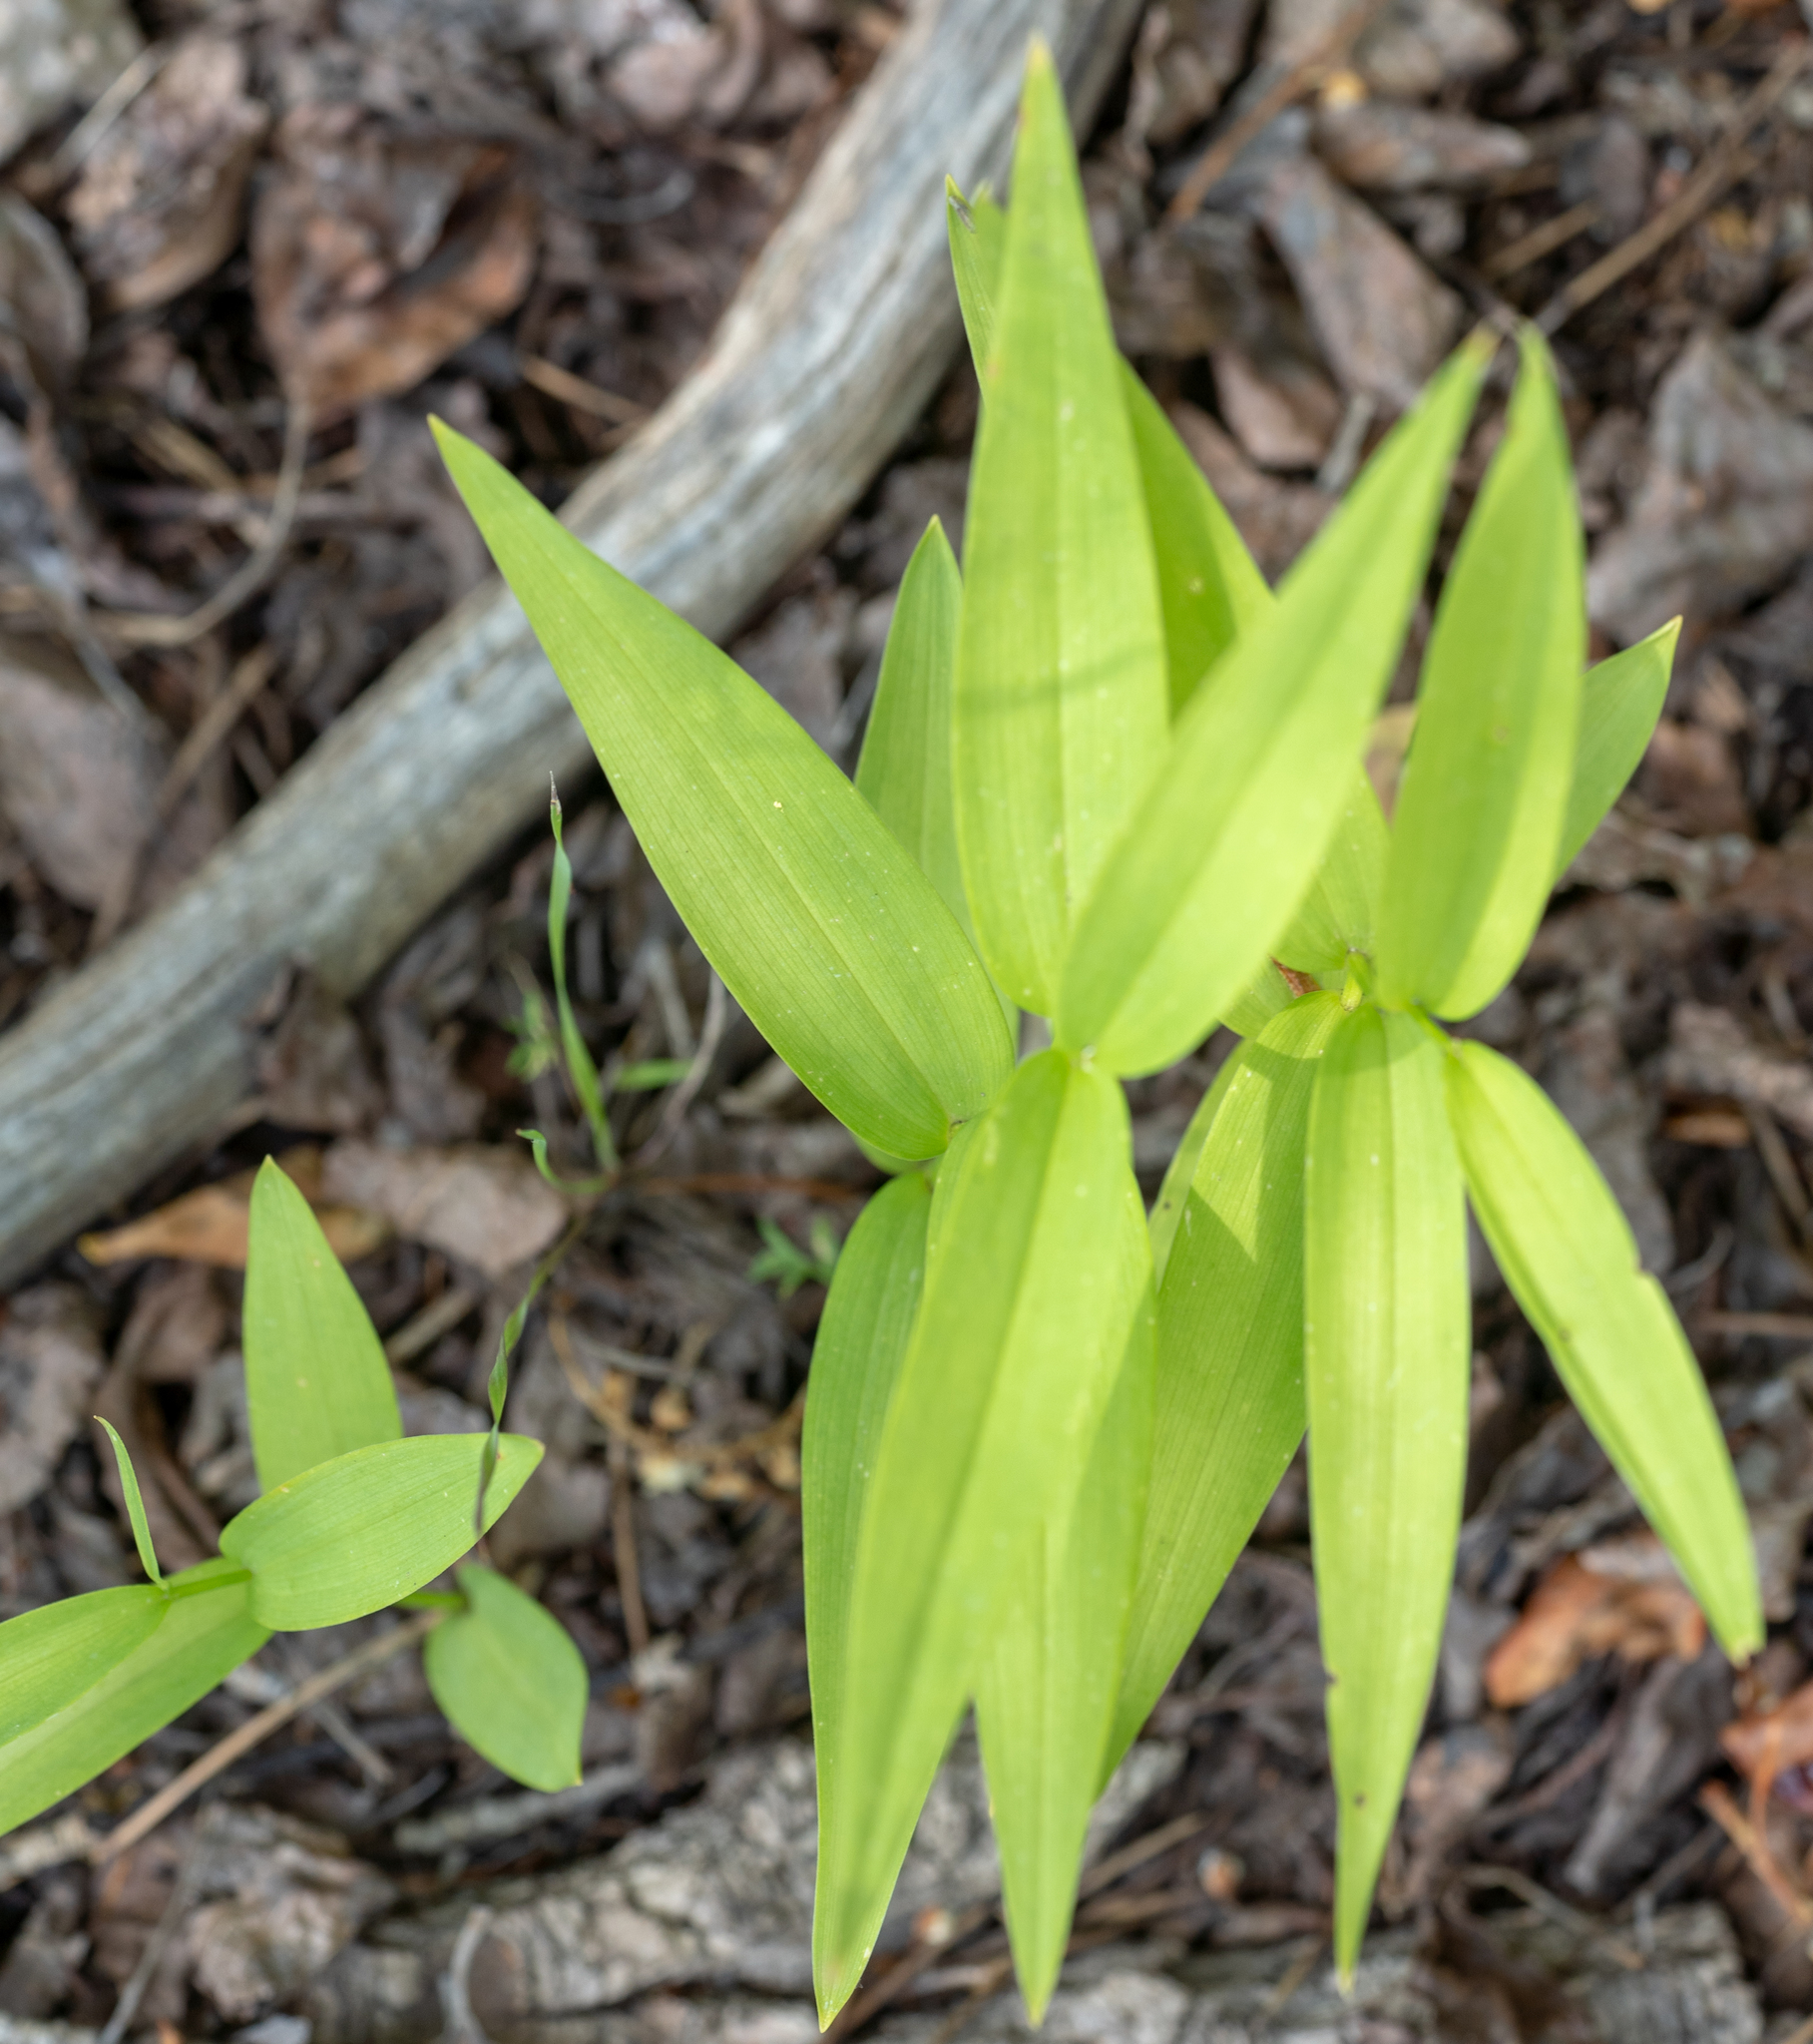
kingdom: Plantae
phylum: Tracheophyta
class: Liliopsida
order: Asparagales
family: Asparagaceae
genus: Maianthemum
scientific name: Maianthemum stellatum
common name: Little false solomon's seal
